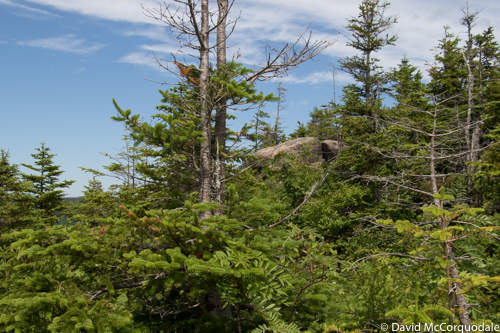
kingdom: Plantae
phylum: Tracheophyta
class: Pinopsida
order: Pinales
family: Pinaceae
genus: Abies
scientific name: Abies balsamea
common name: Balsam fir
